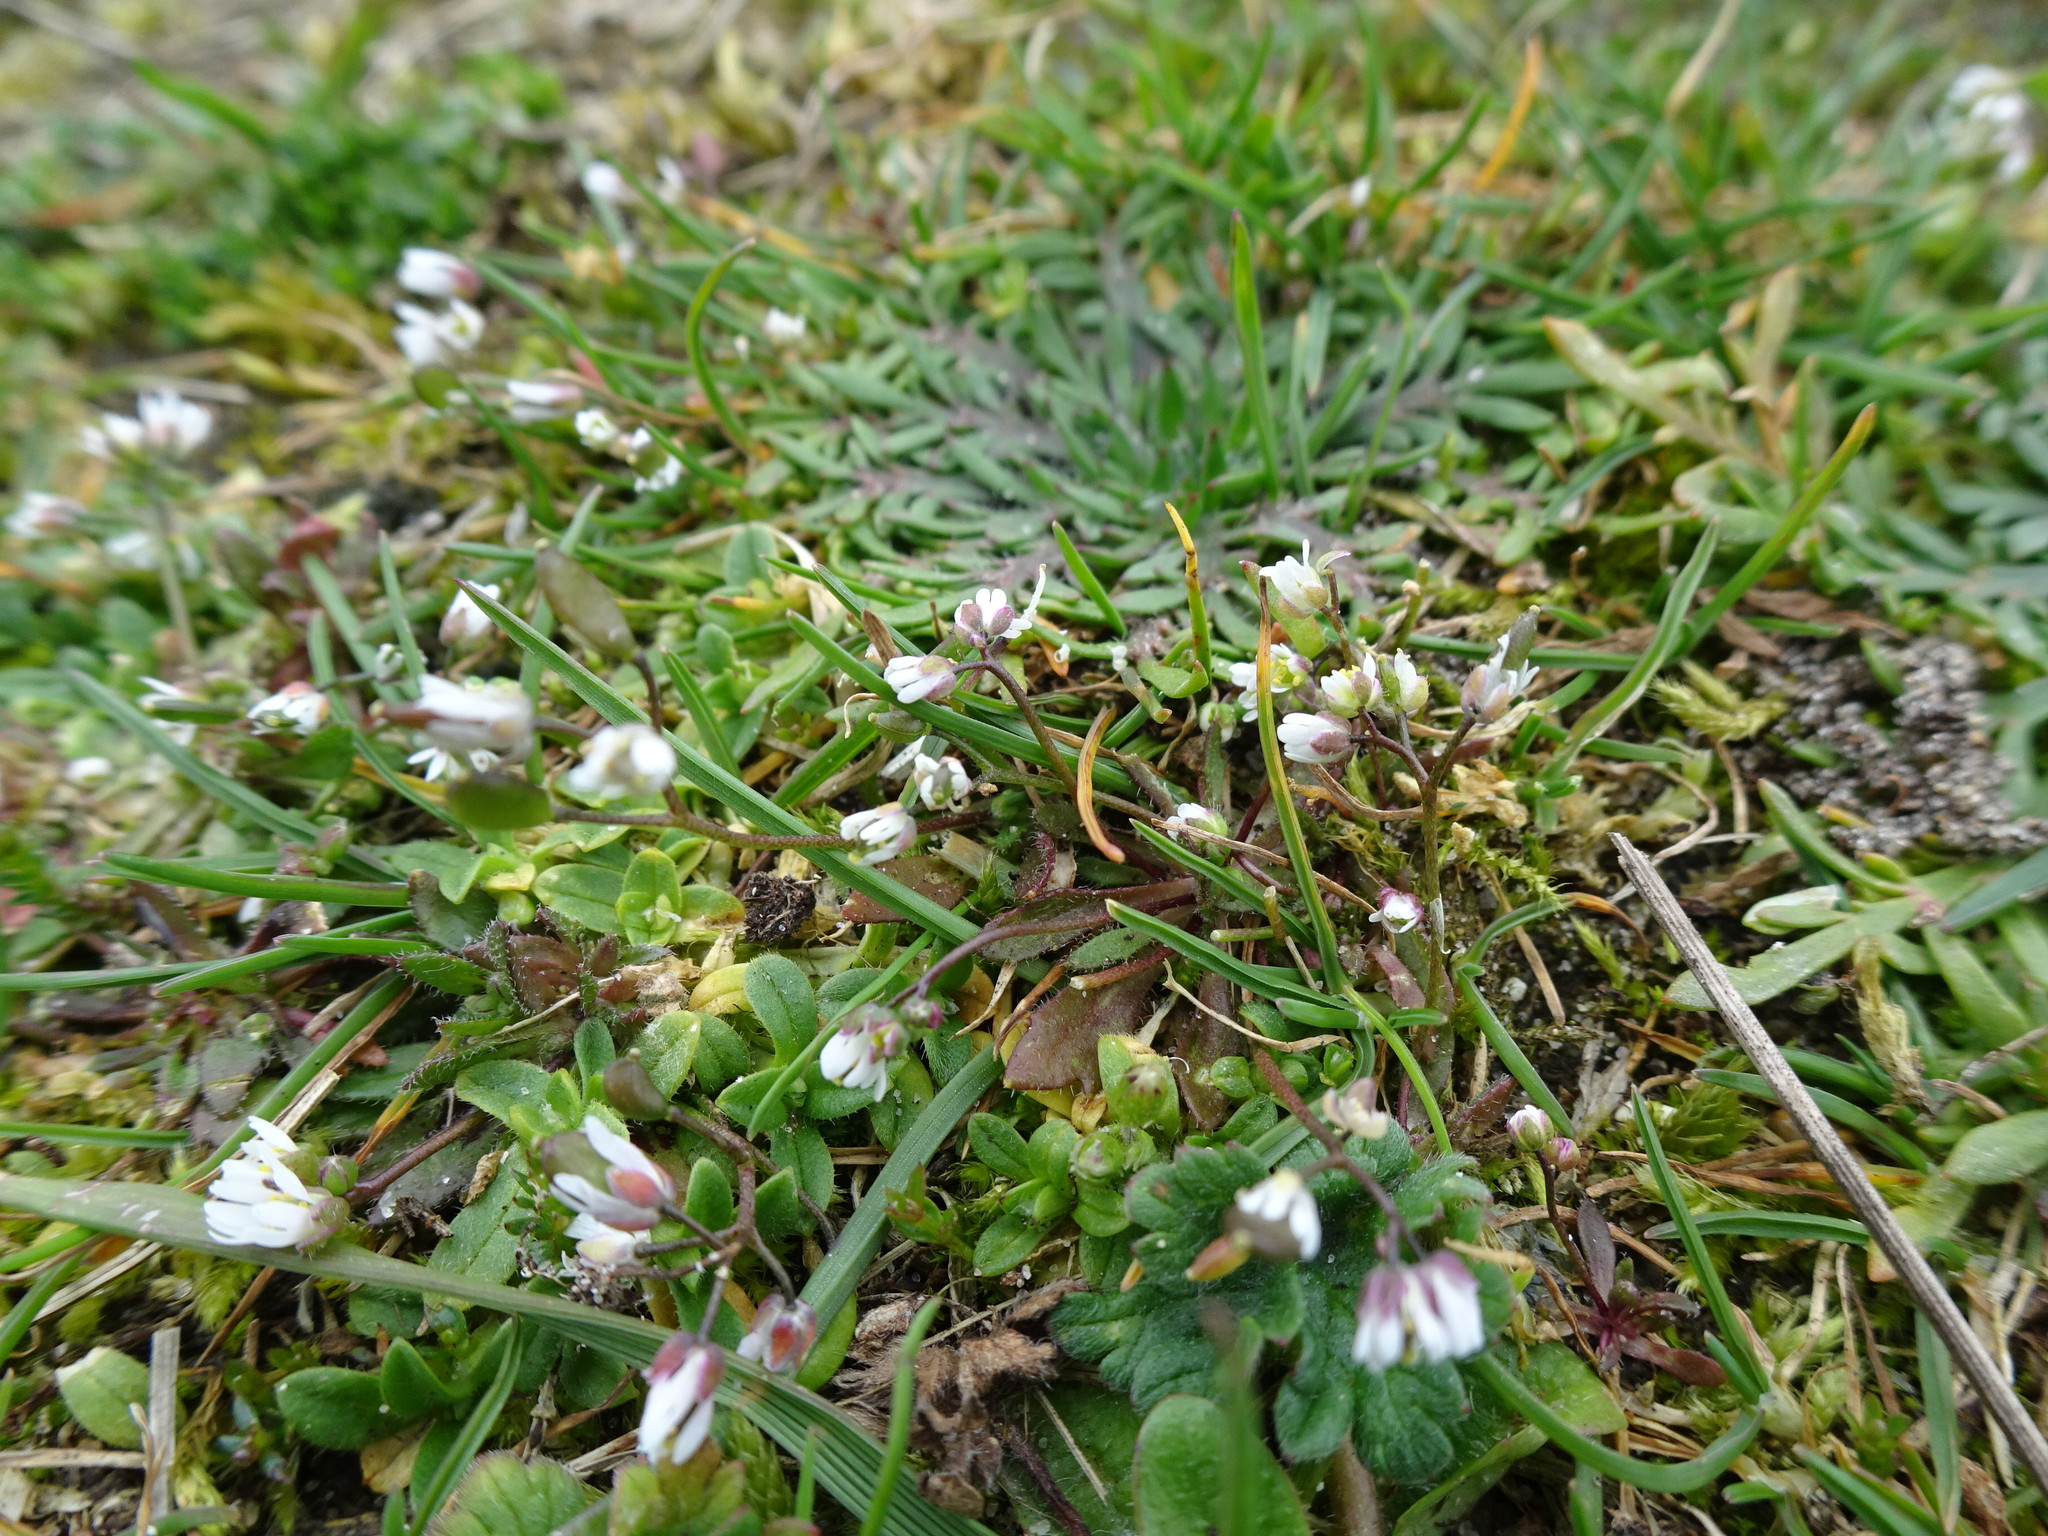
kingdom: Plantae
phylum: Tracheophyta
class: Magnoliopsida
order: Brassicales
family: Brassicaceae
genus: Draba
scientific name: Draba verna
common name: Spring draba
